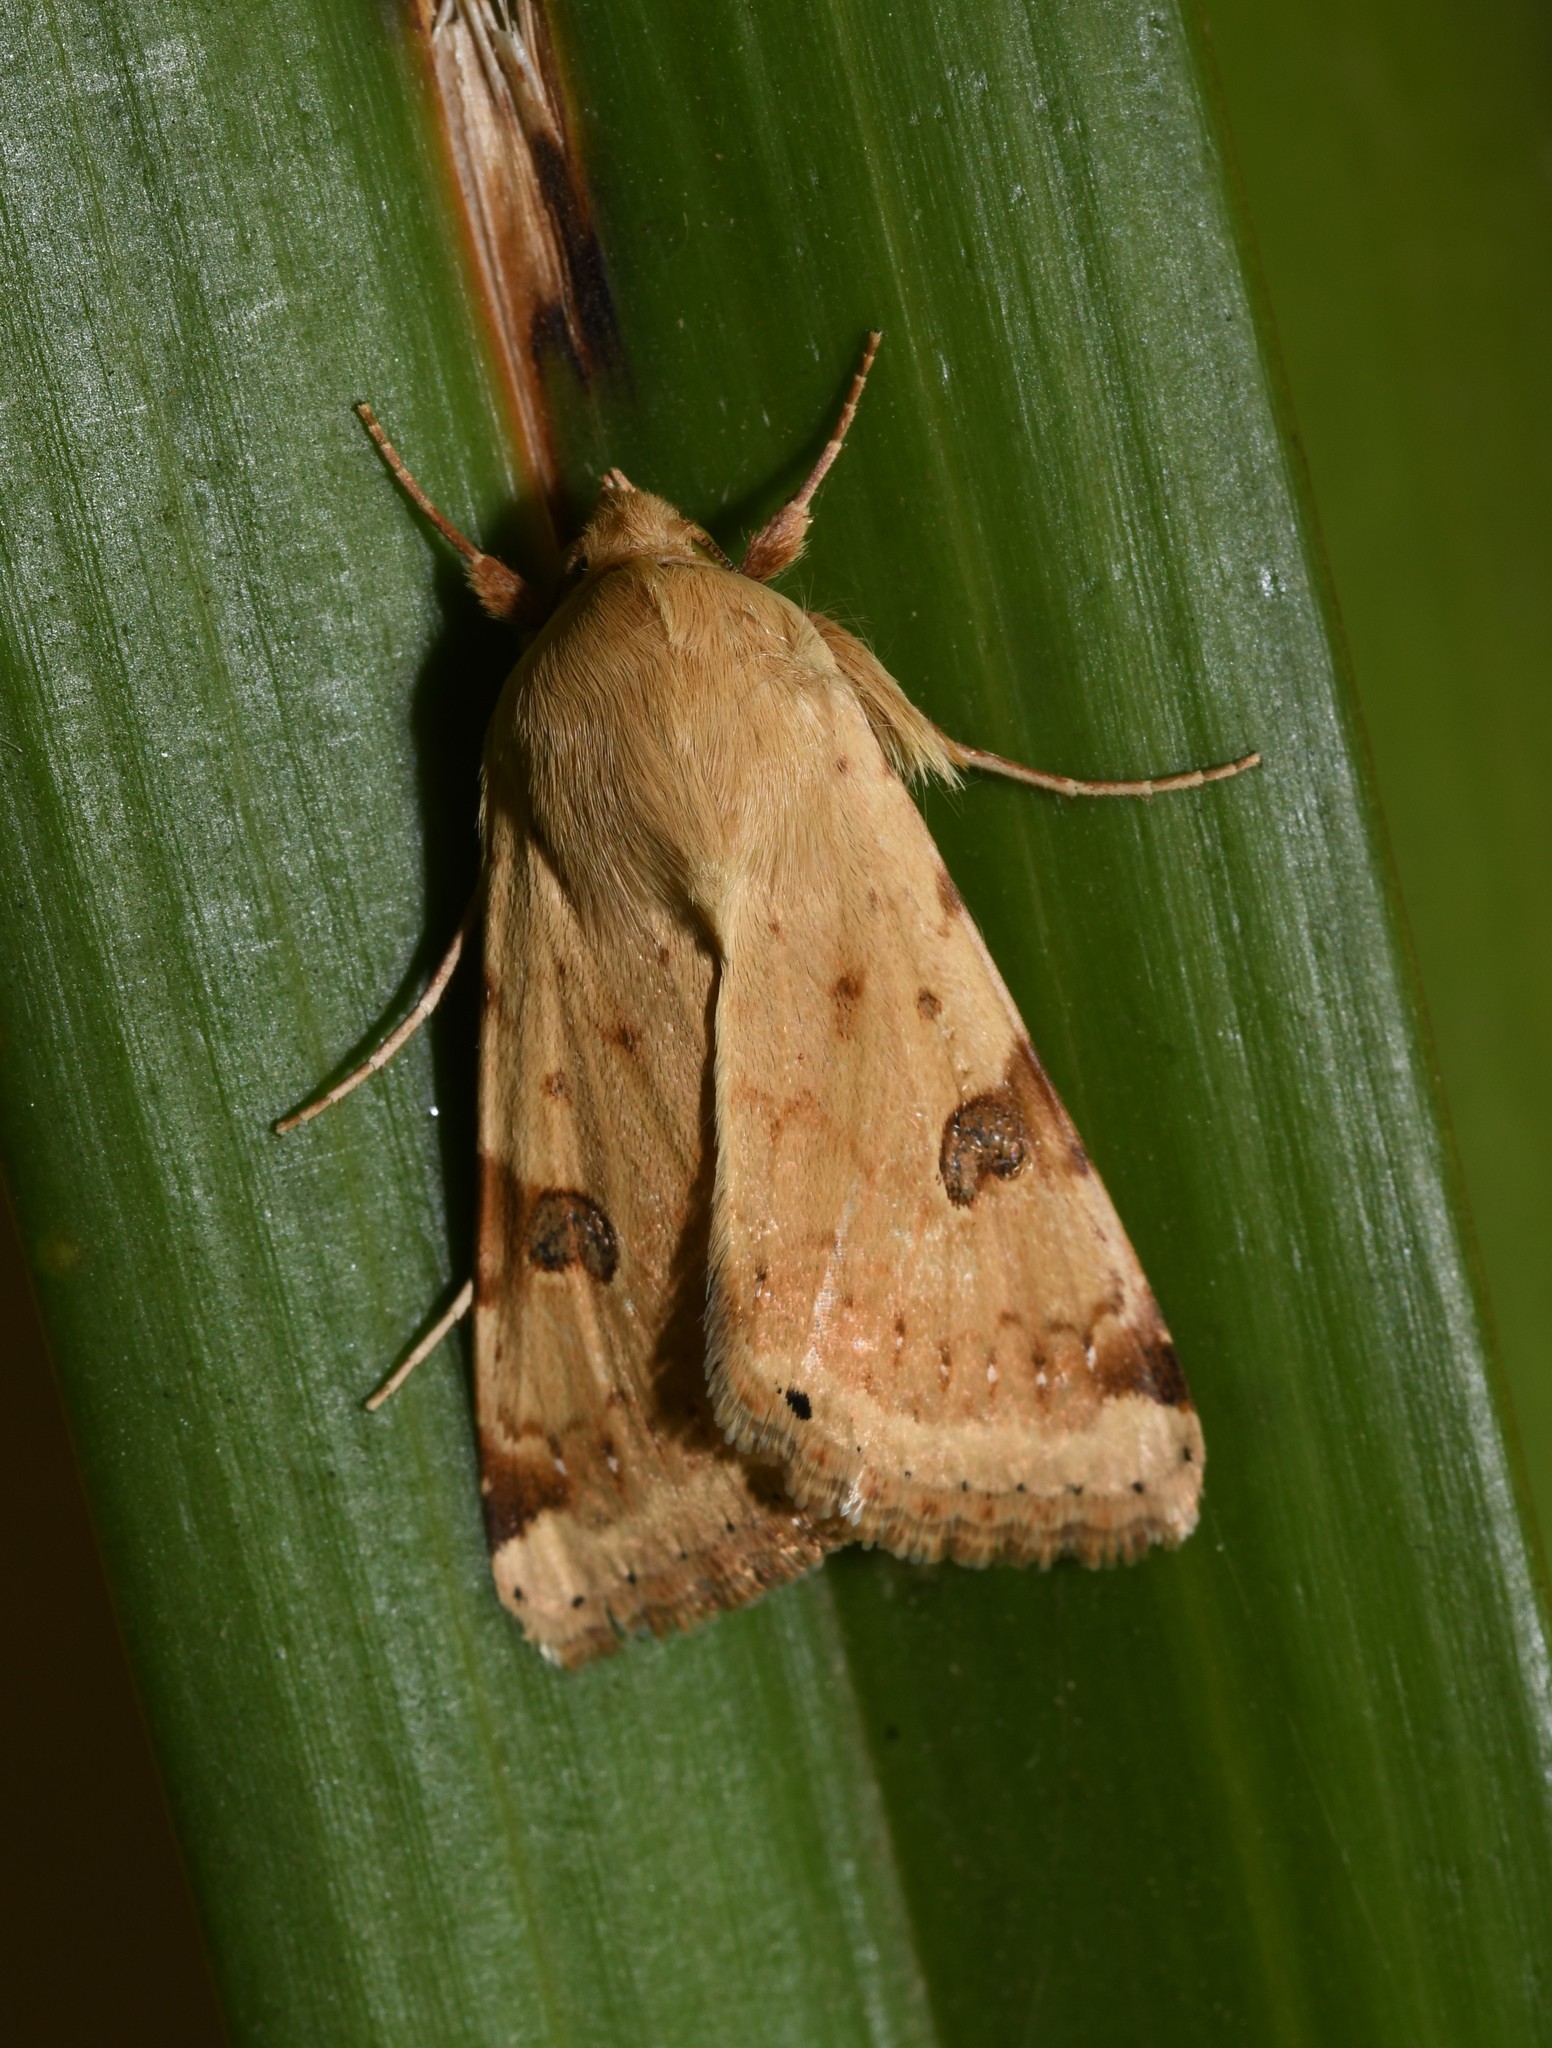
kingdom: Animalia
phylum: Arthropoda
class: Insecta
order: Lepidoptera
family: Noctuidae
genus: Heliothis
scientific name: Heliothis peltigera
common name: Bordered straw
